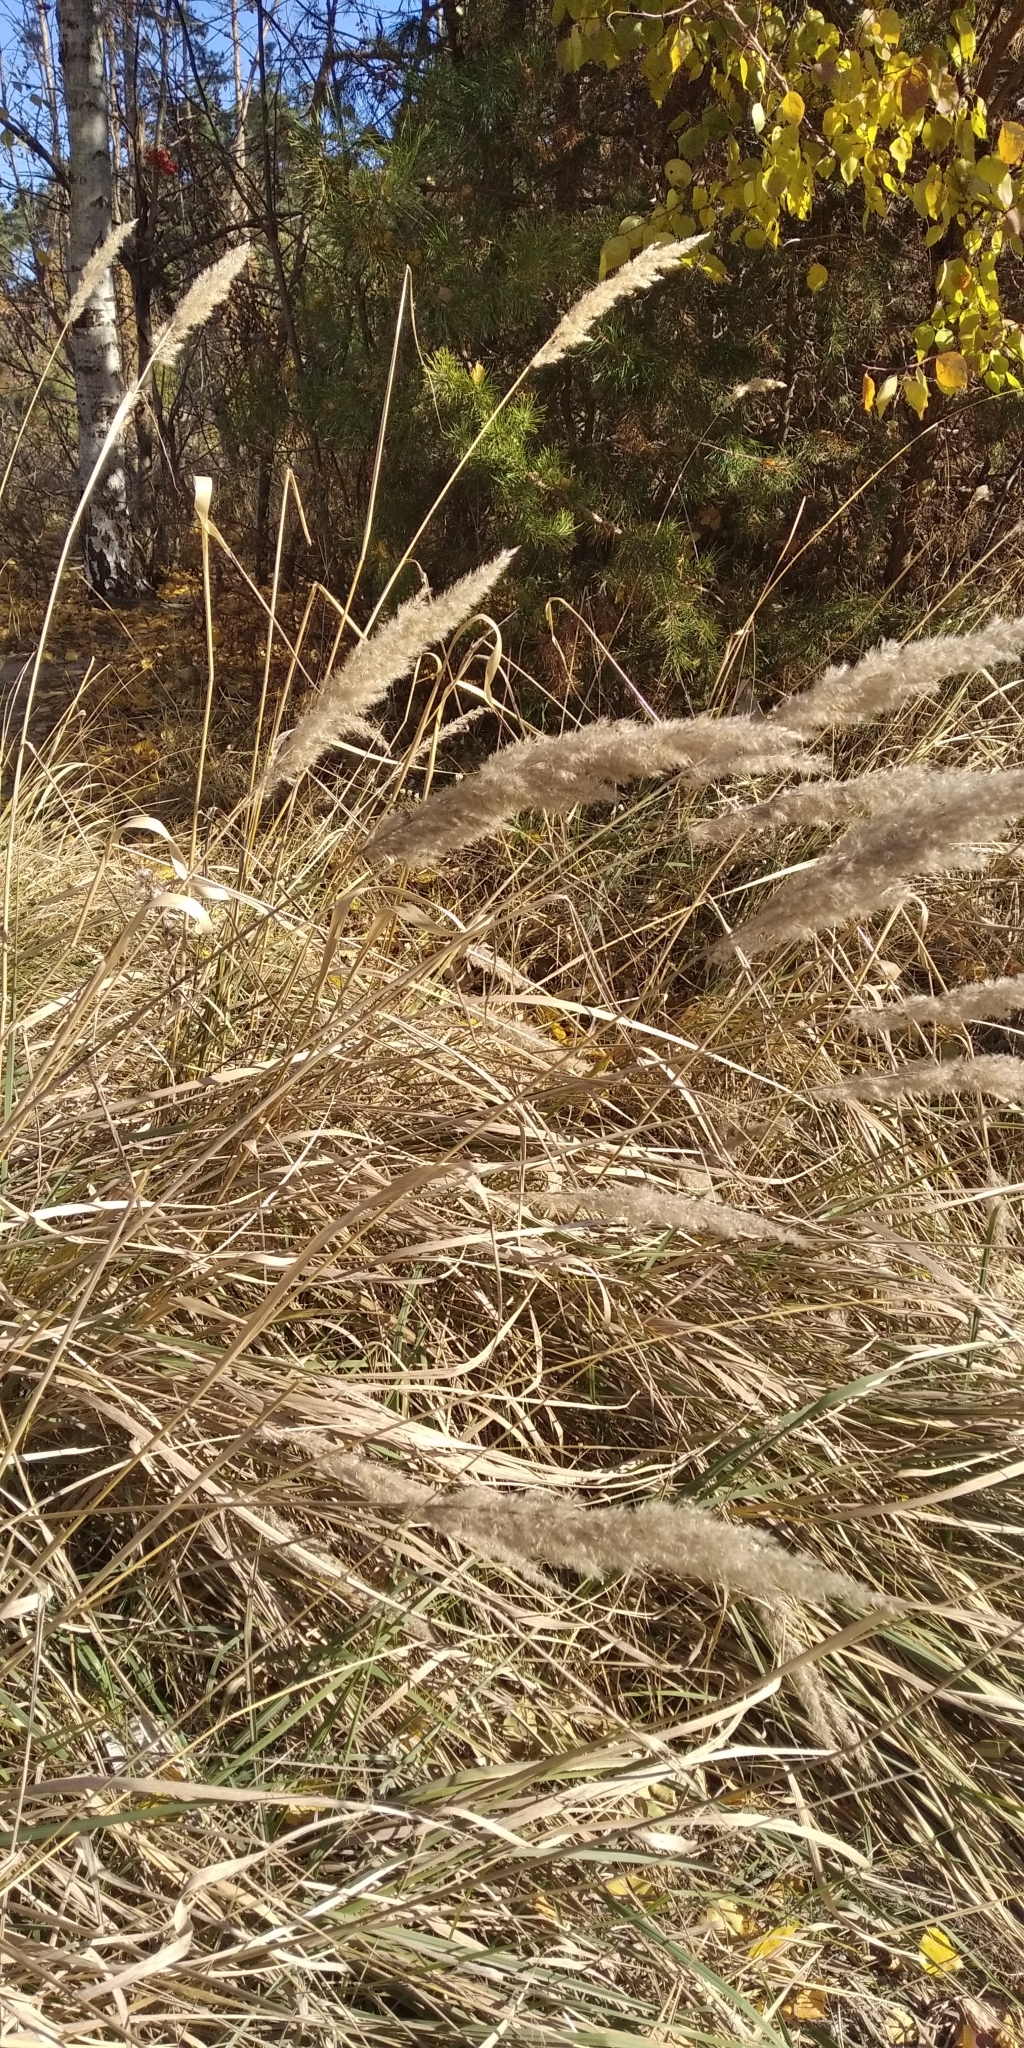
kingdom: Plantae
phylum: Tracheophyta
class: Liliopsida
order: Poales
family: Poaceae
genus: Calamagrostis
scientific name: Calamagrostis epigejos
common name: Wood small-reed
